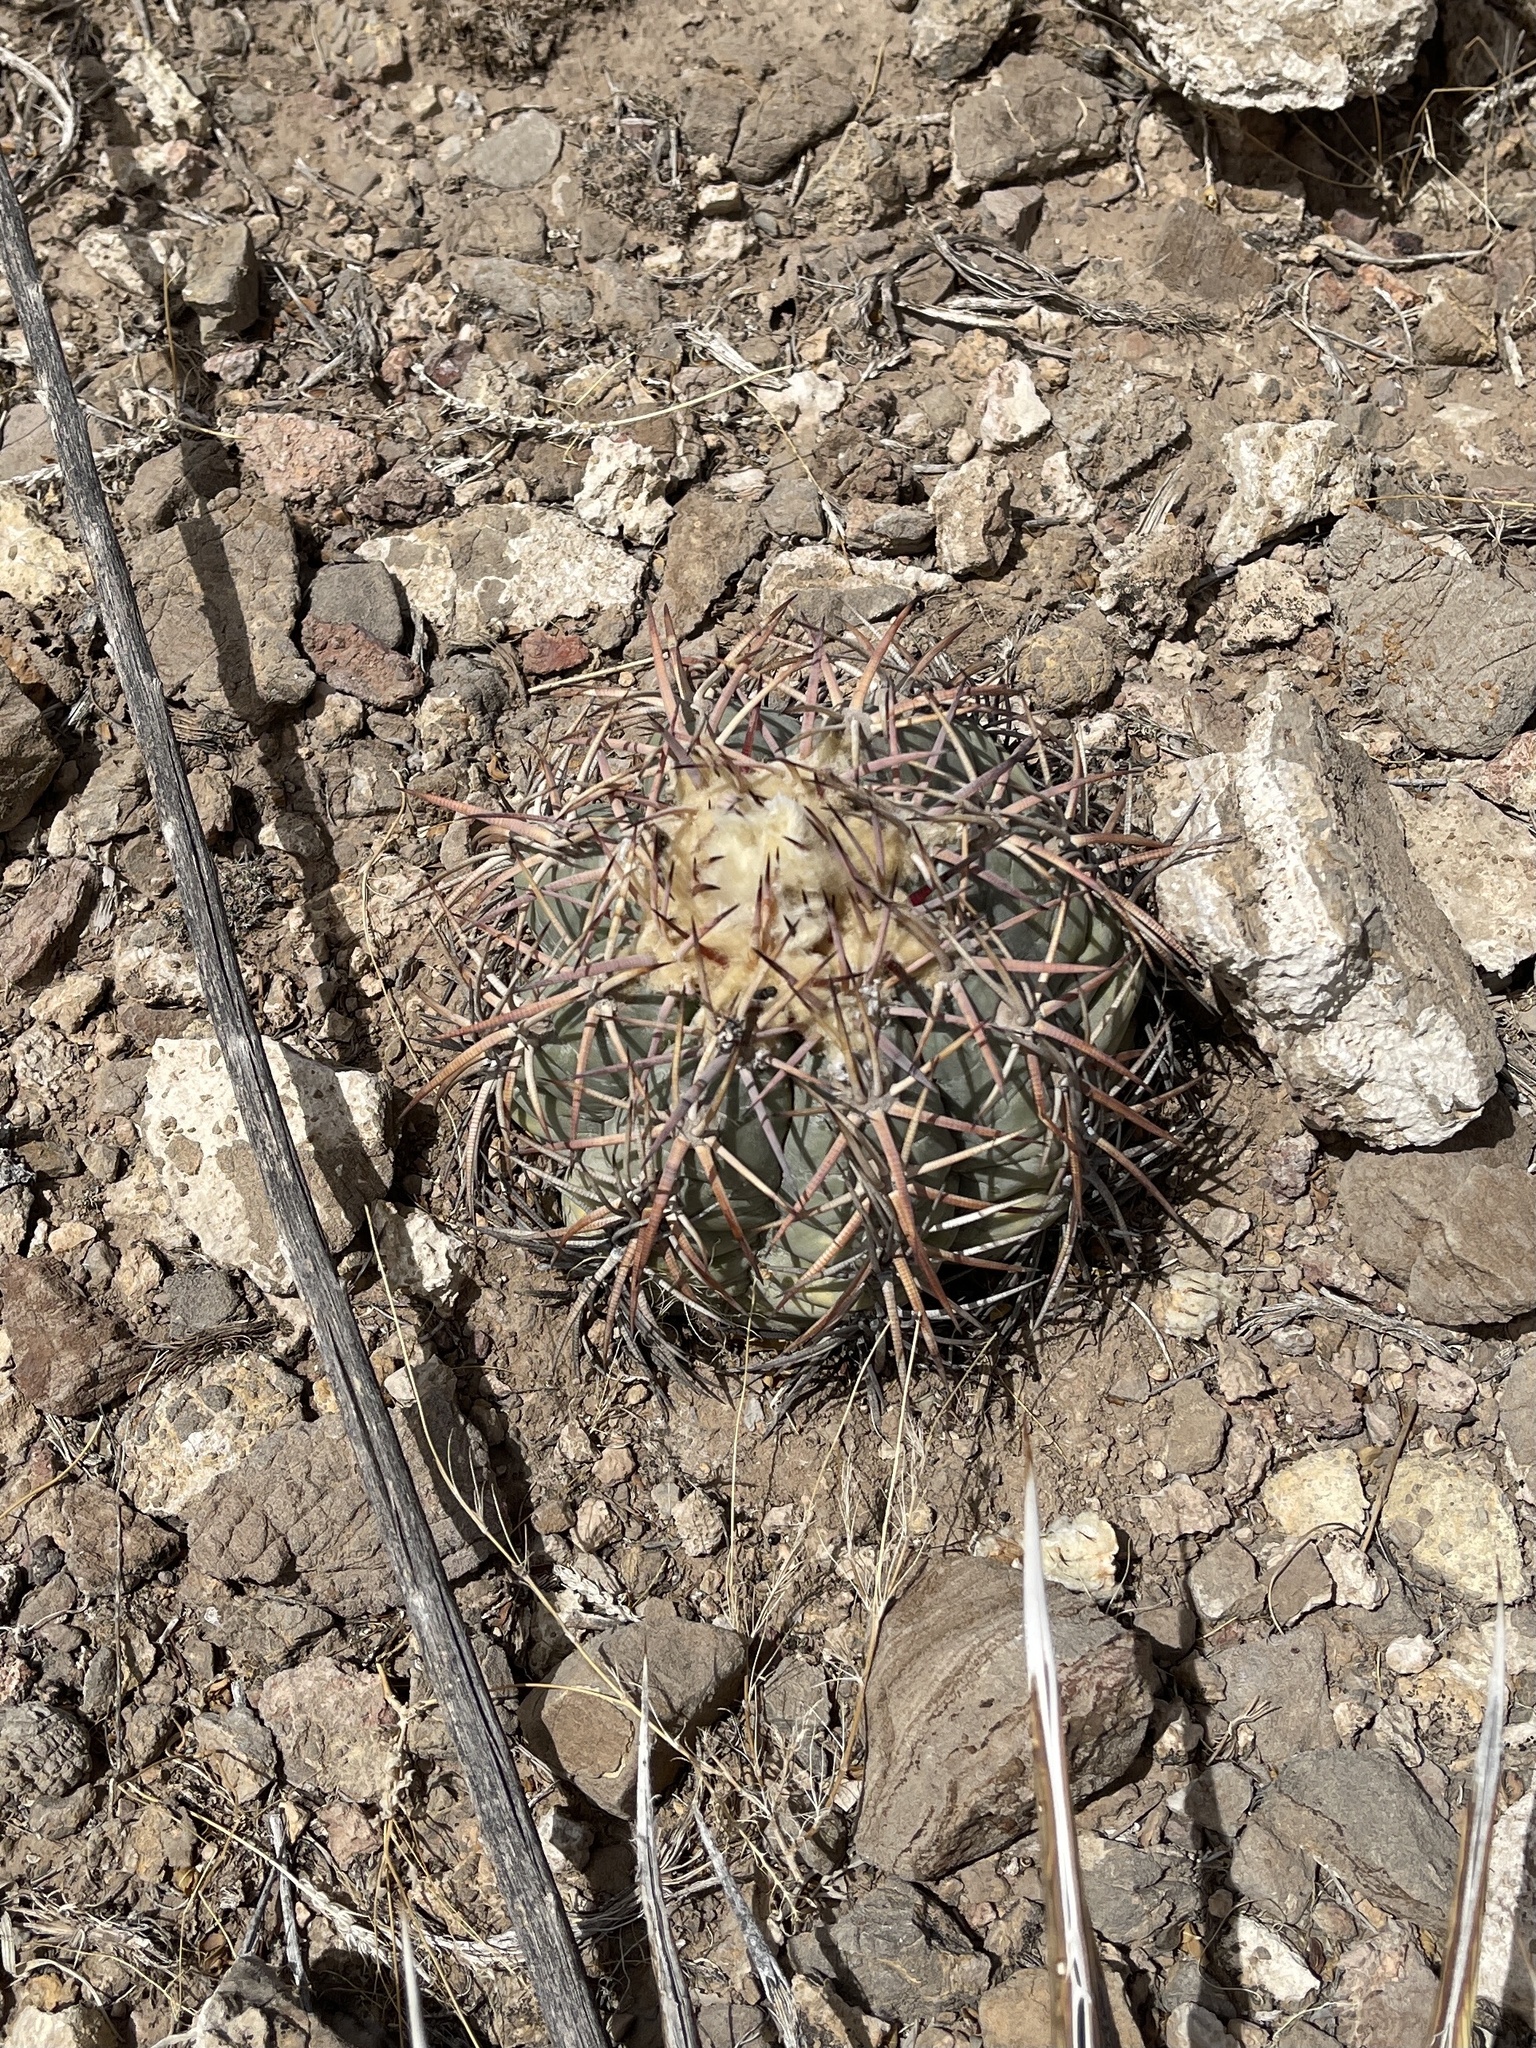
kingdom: Plantae
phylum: Tracheophyta
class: Magnoliopsida
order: Caryophyllales
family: Cactaceae
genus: Echinocactus
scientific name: Echinocactus horizonthalonius
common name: Devilshead
